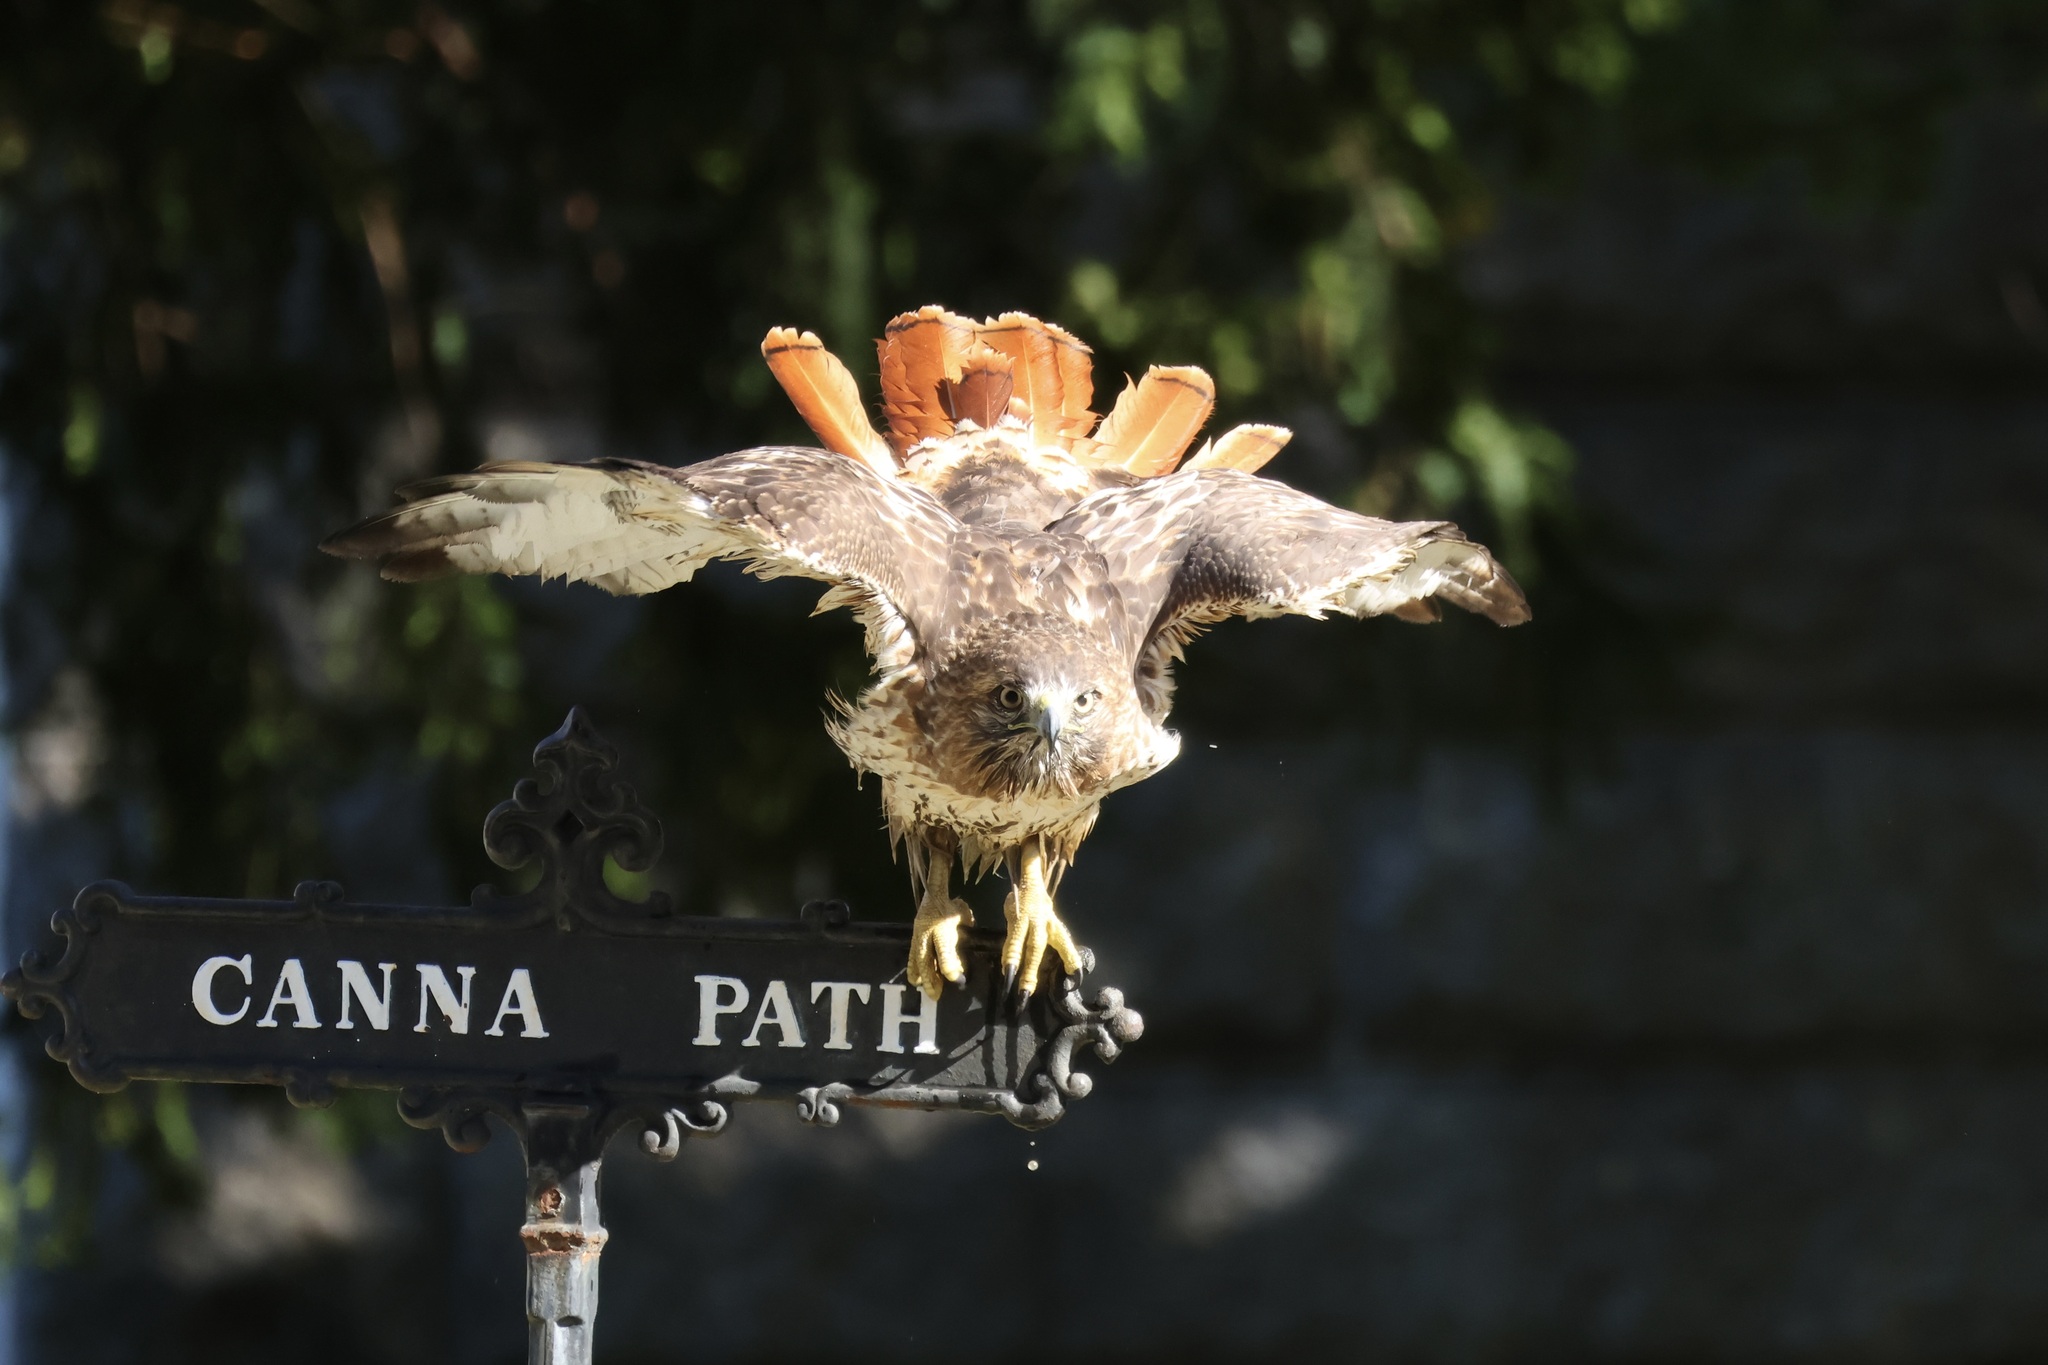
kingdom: Animalia
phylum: Chordata
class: Aves
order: Accipitriformes
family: Accipitridae
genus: Buteo
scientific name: Buteo jamaicensis
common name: Red-tailed hawk
